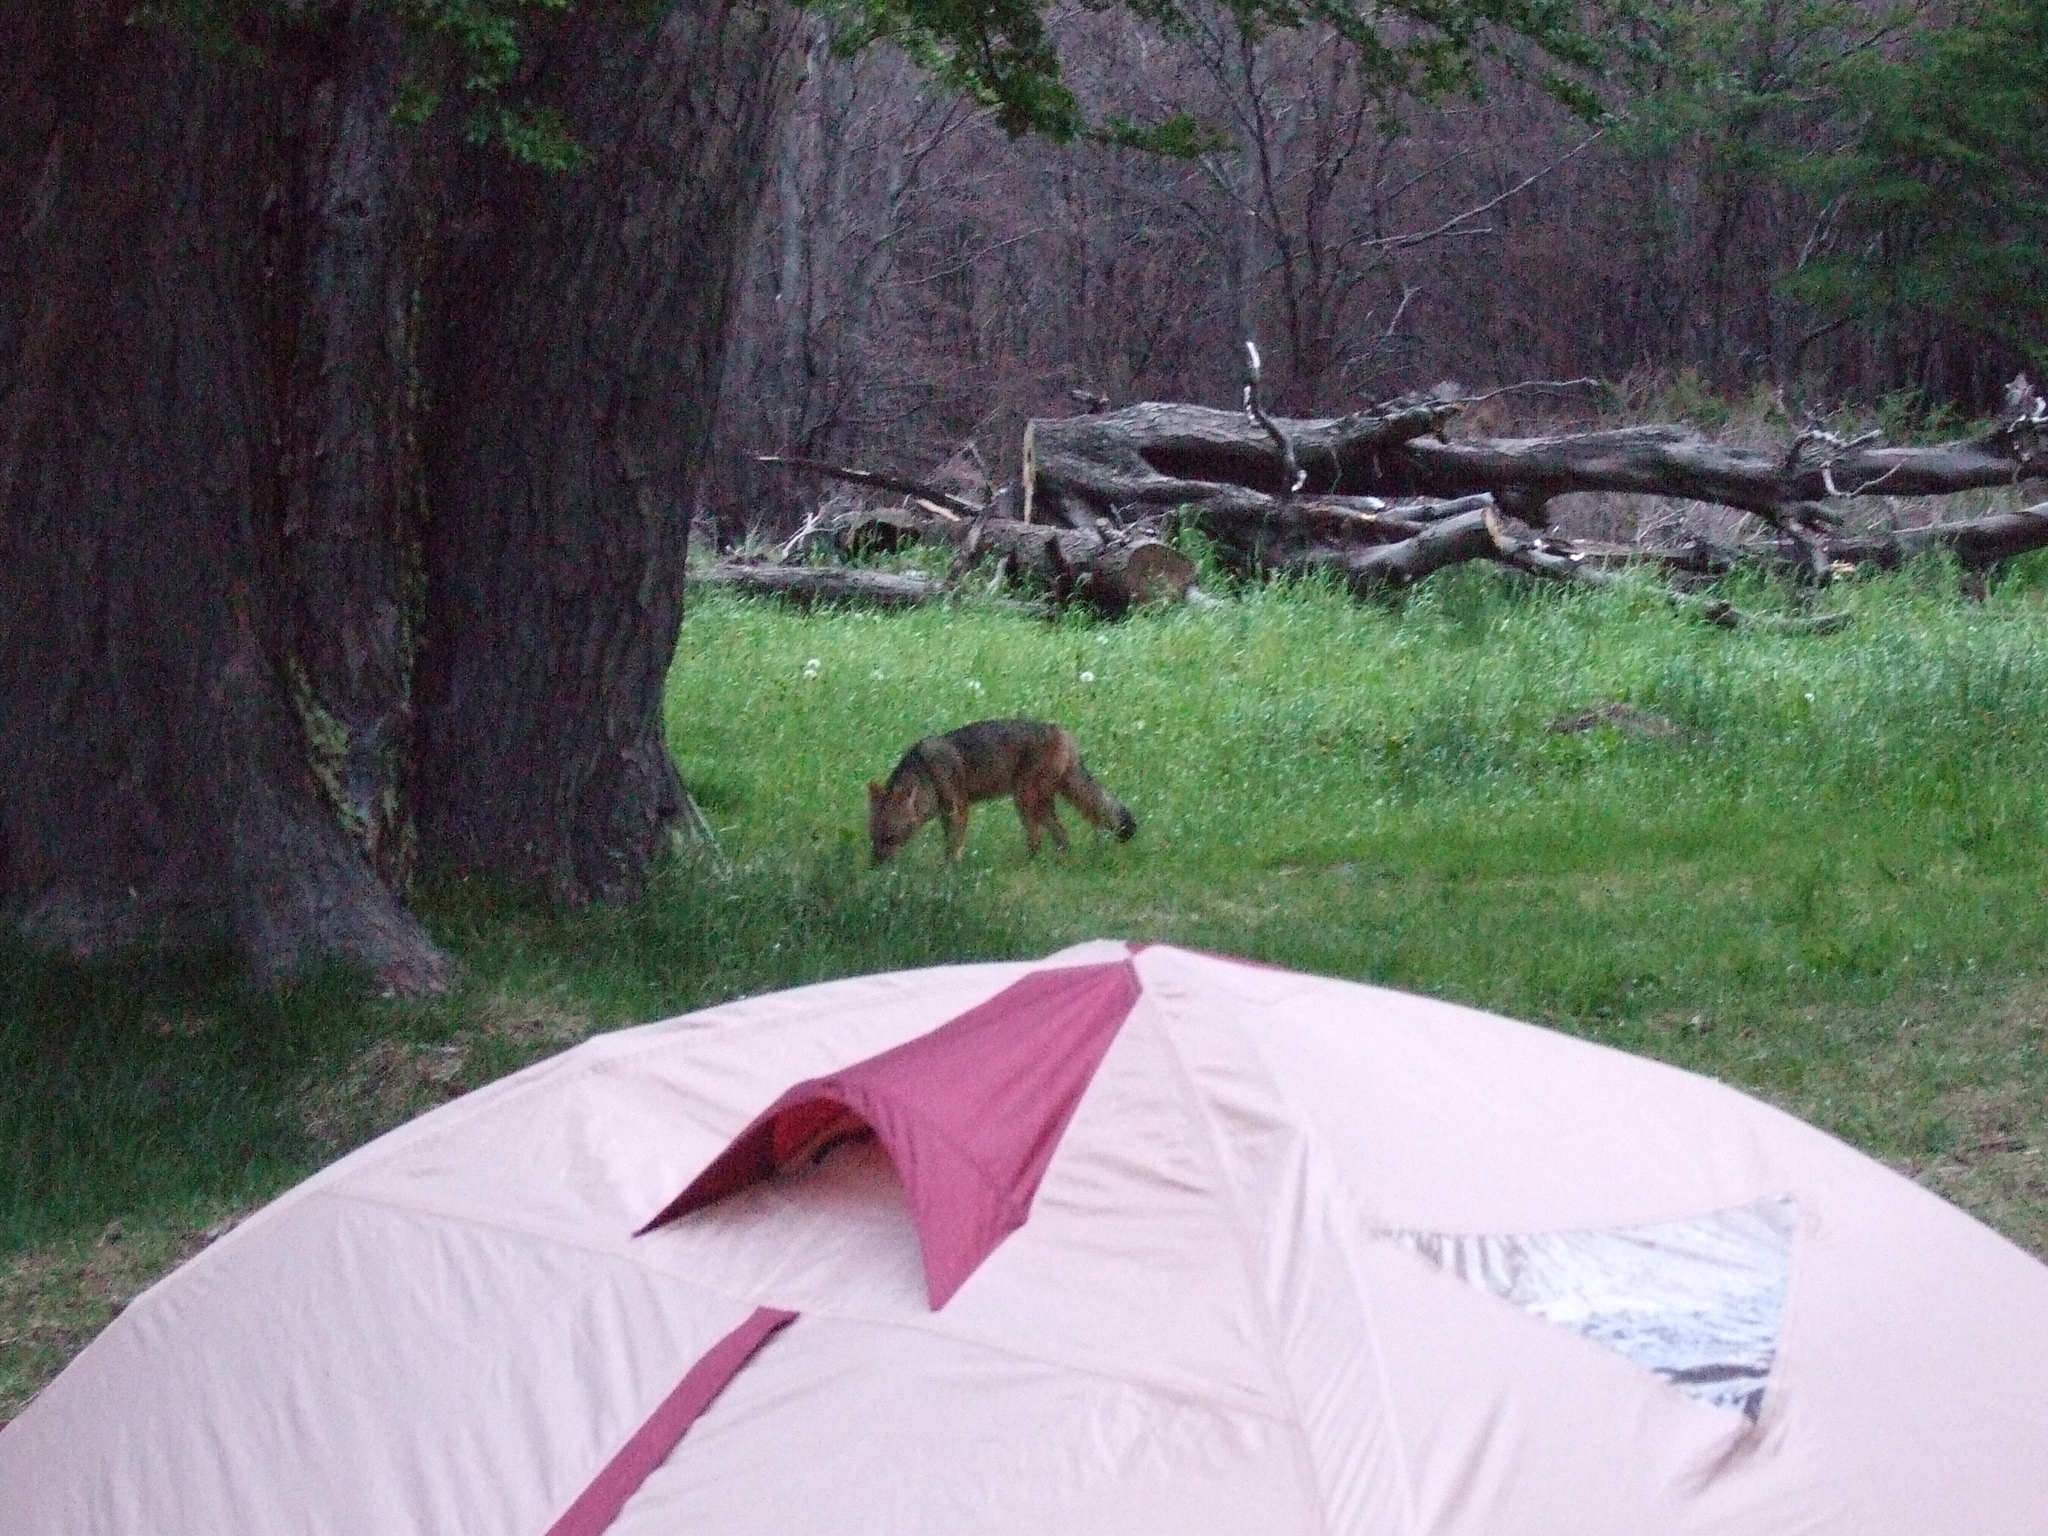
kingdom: Animalia
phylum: Chordata
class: Mammalia
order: Carnivora
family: Canidae
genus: Lycalopex
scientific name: Lycalopex culpaeus
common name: Culpeo
